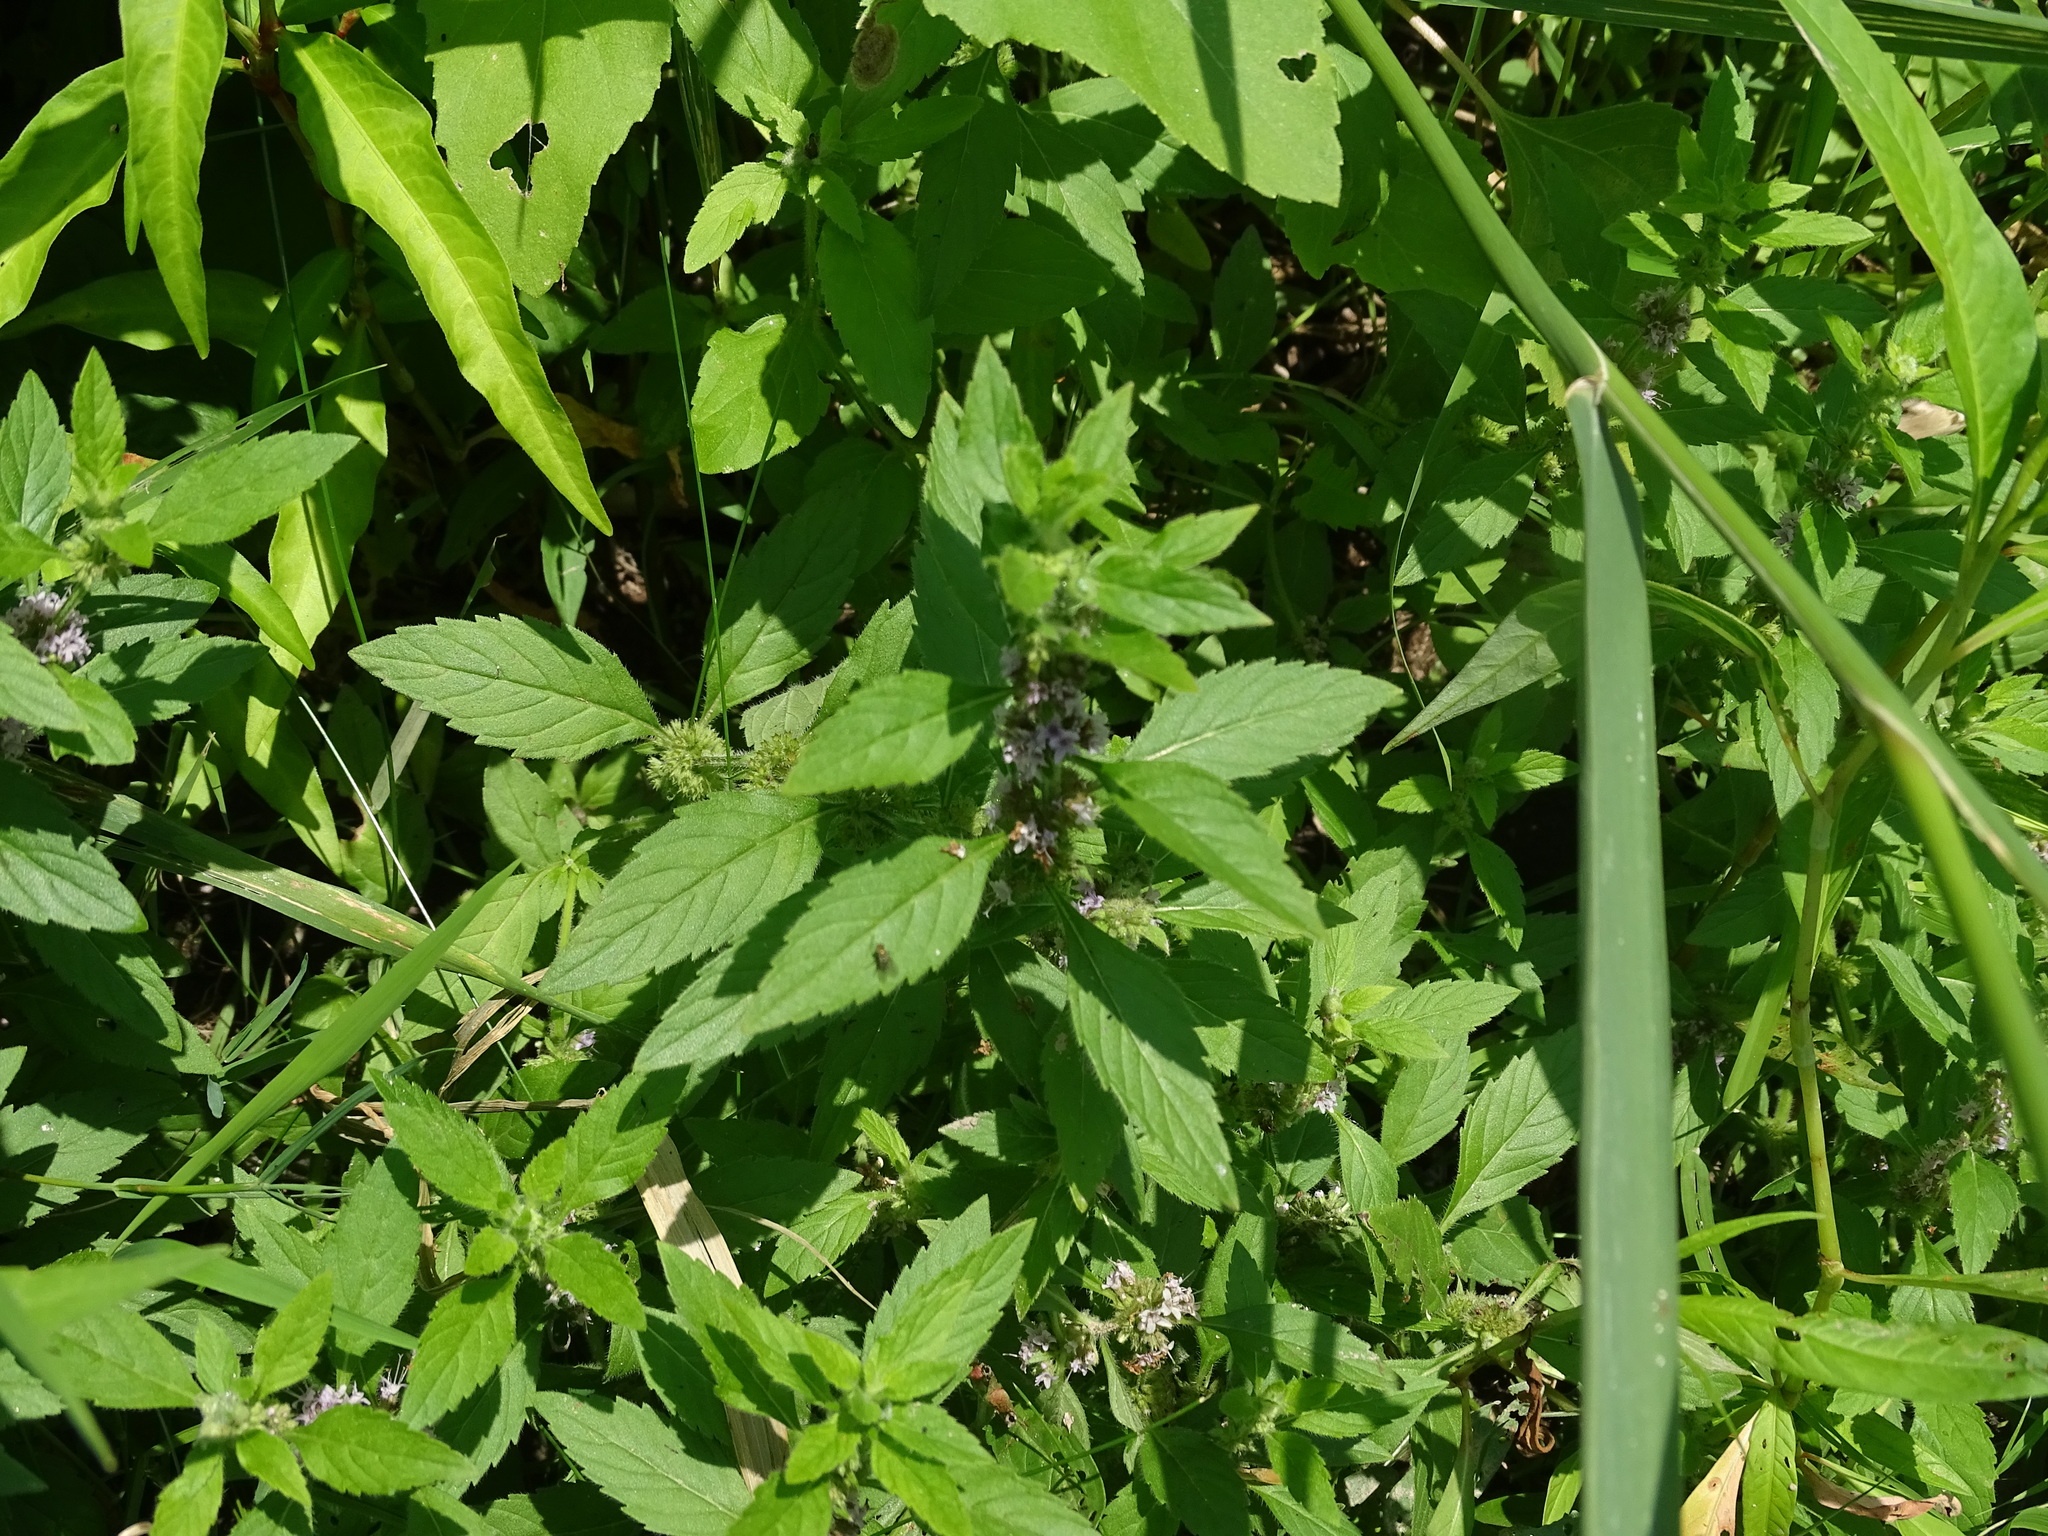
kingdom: Plantae
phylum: Tracheophyta
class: Magnoliopsida
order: Lamiales
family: Lamiaceae
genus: Mentha
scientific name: Mentha canadensis
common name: American corn mint
